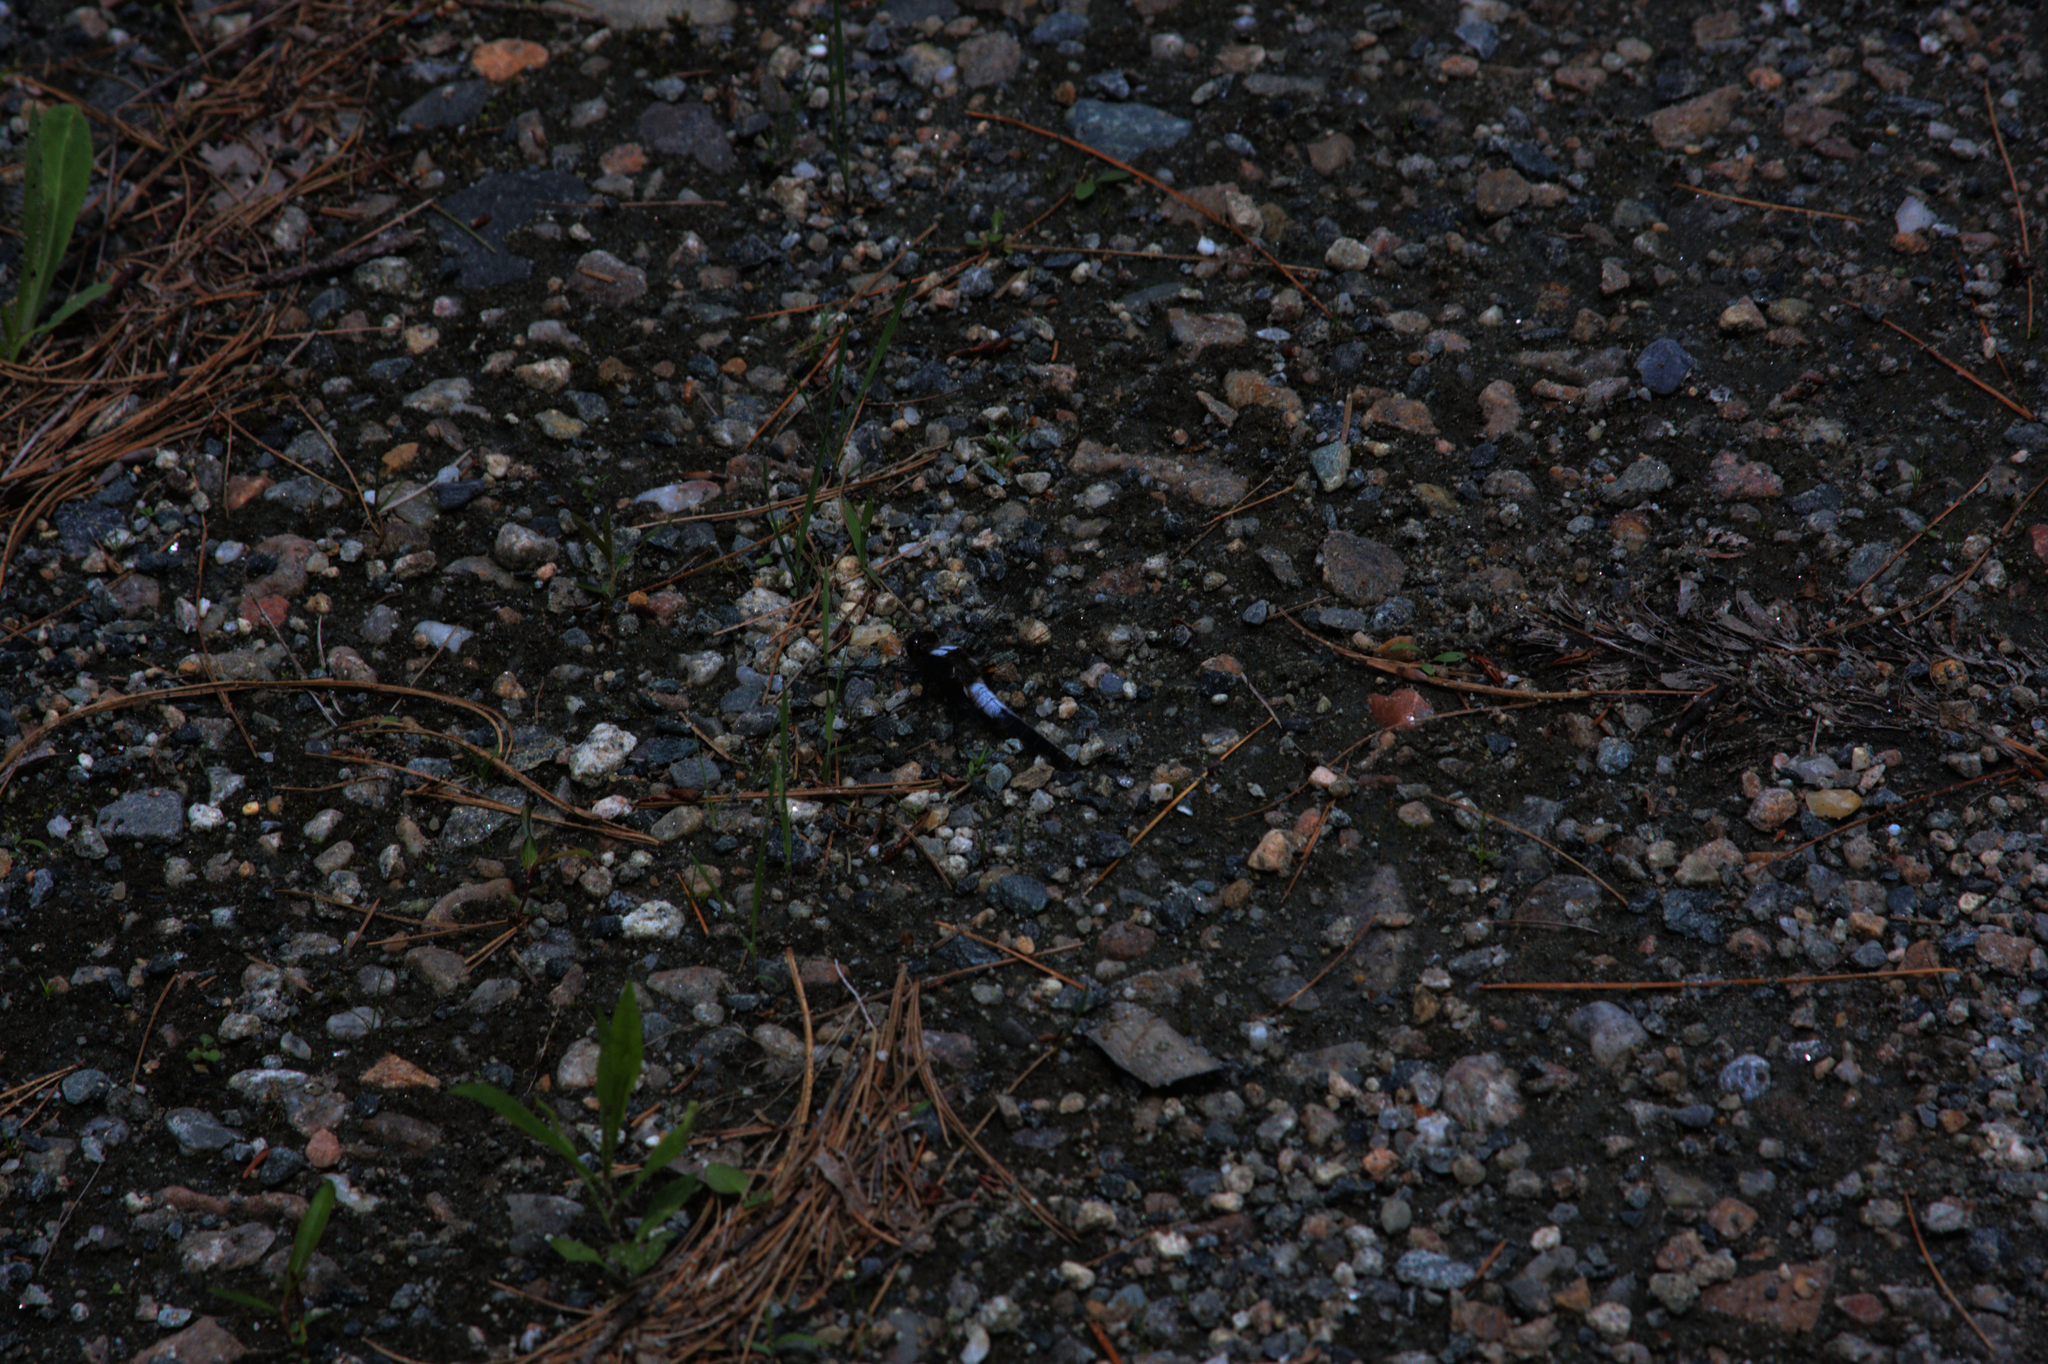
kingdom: Animalia
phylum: Arthropoda
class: Insecta
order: Odonata
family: Libellulidae
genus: Ladona
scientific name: Ladona julia
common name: Chalk-fronted corporal
